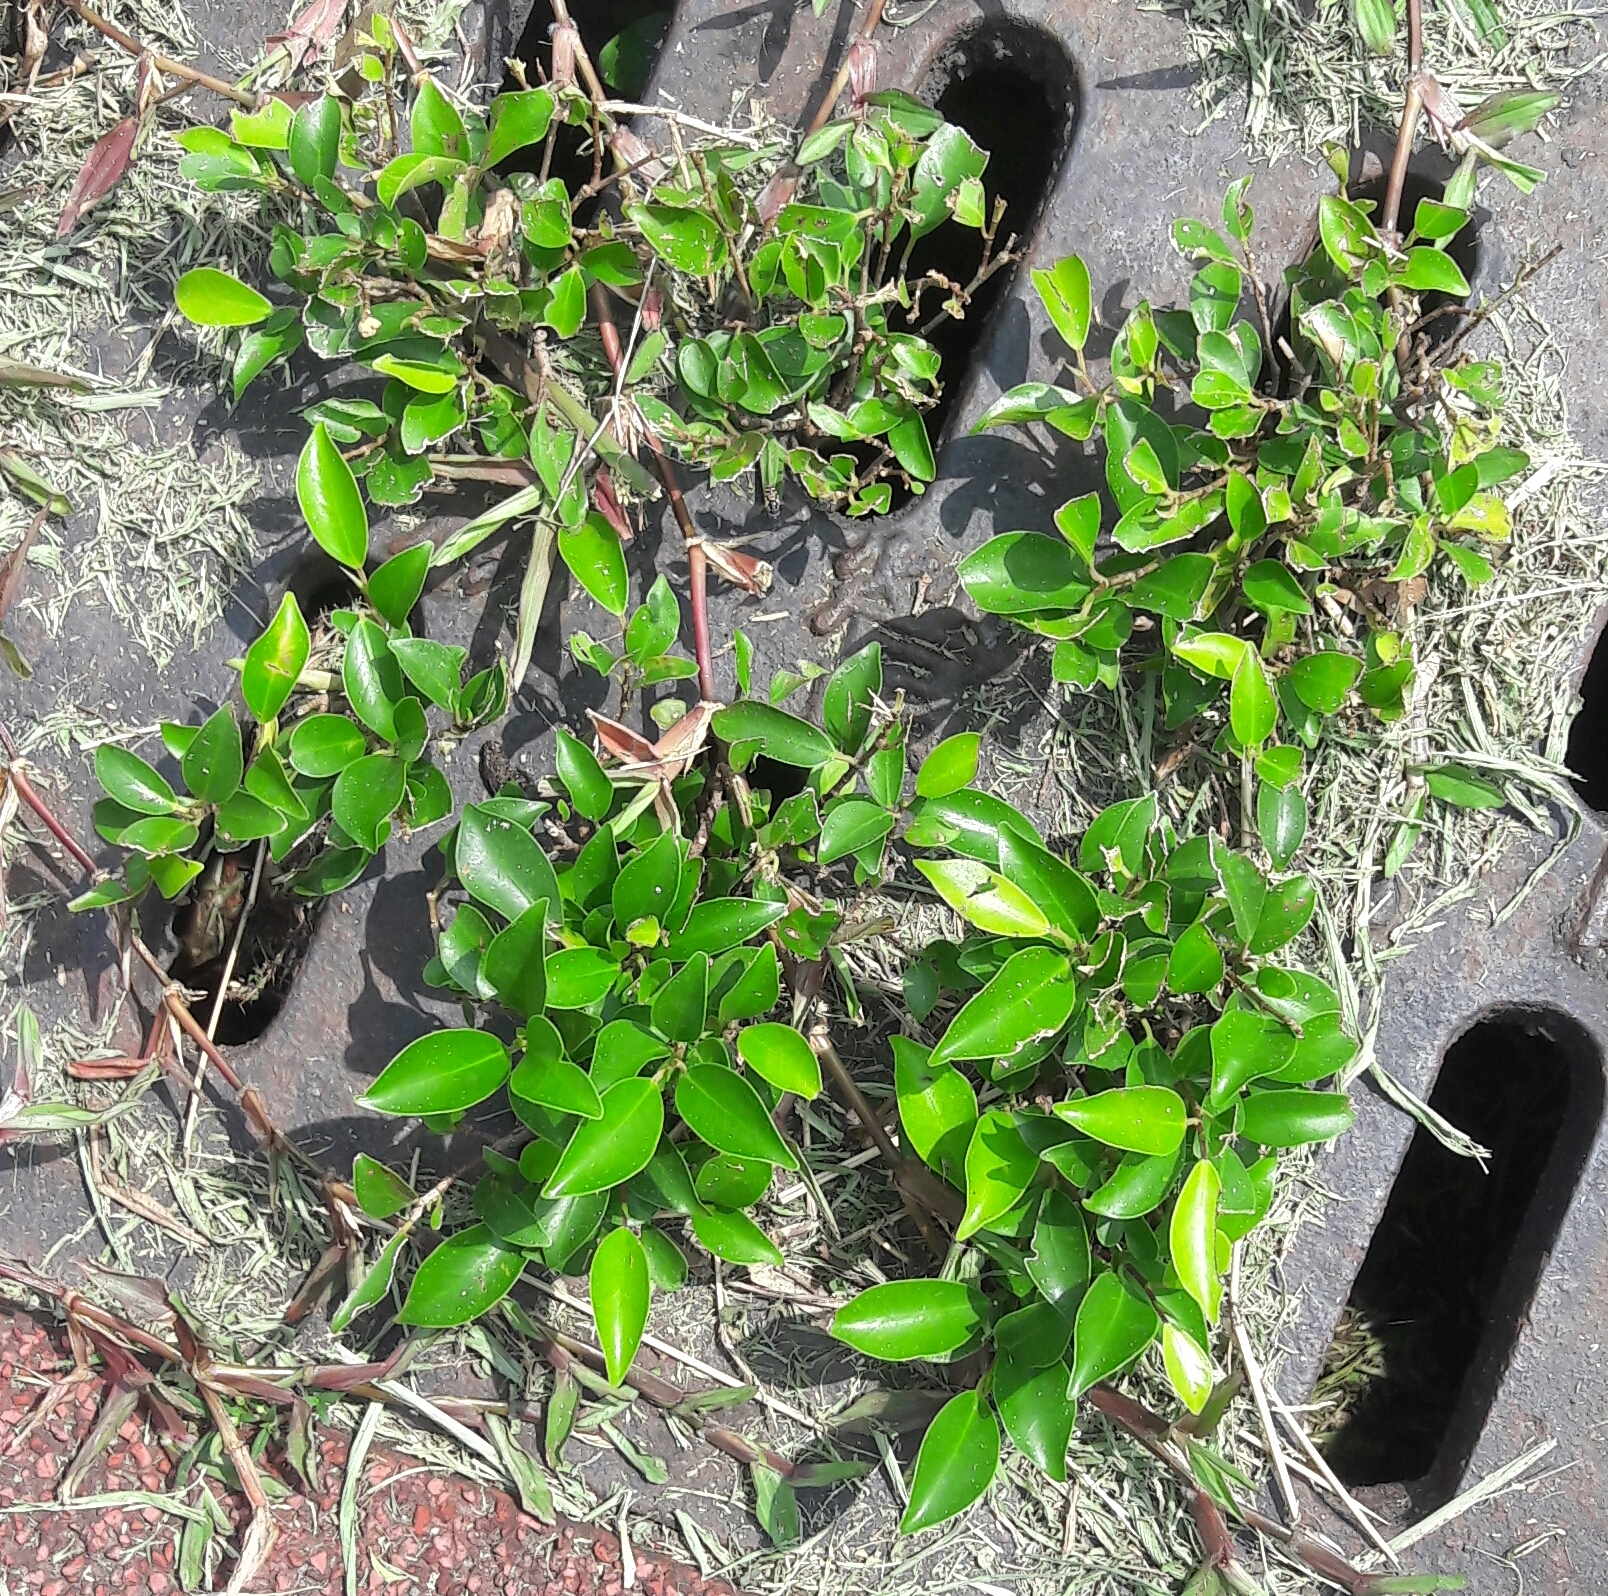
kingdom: Plantae
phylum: Tracheophyta
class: Magnoliopsida
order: Rosales
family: Moraceae
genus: Ficus
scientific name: Ficus microcarpa
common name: Chinese banyan
